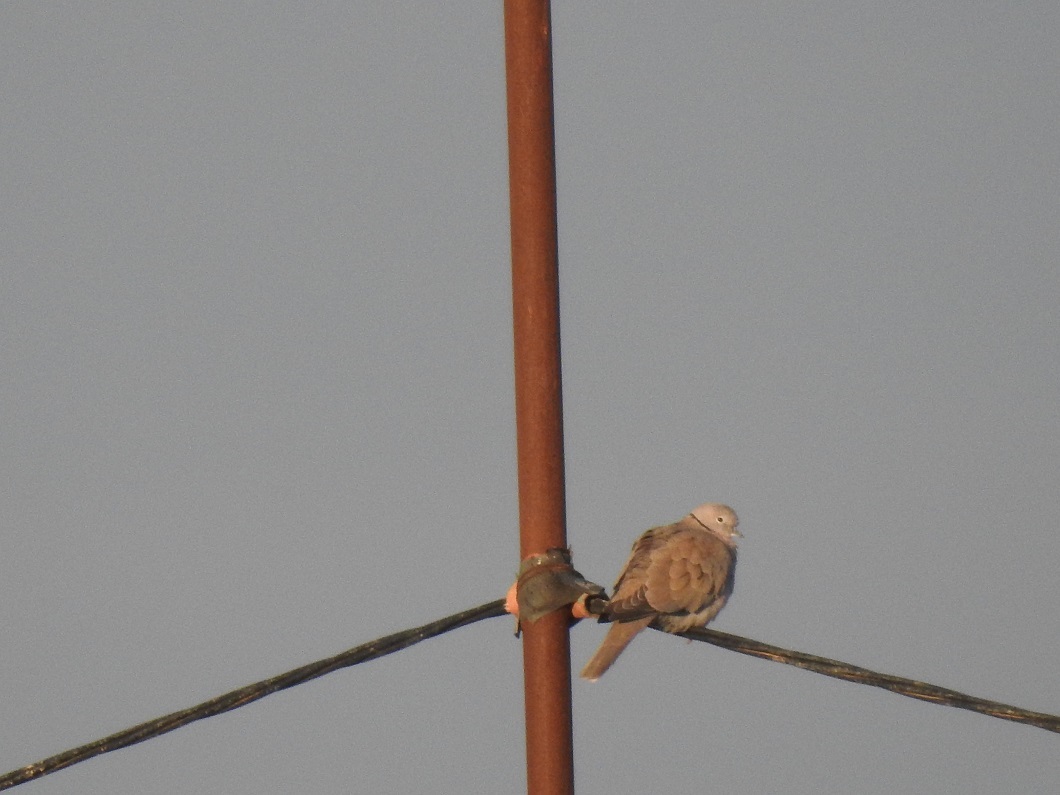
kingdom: Animalia
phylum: Chordata
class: Aves
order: Columbiformes
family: Columbidae
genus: Streptopelia
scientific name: Streptopelia decaocto
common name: Eurasian collared dove
